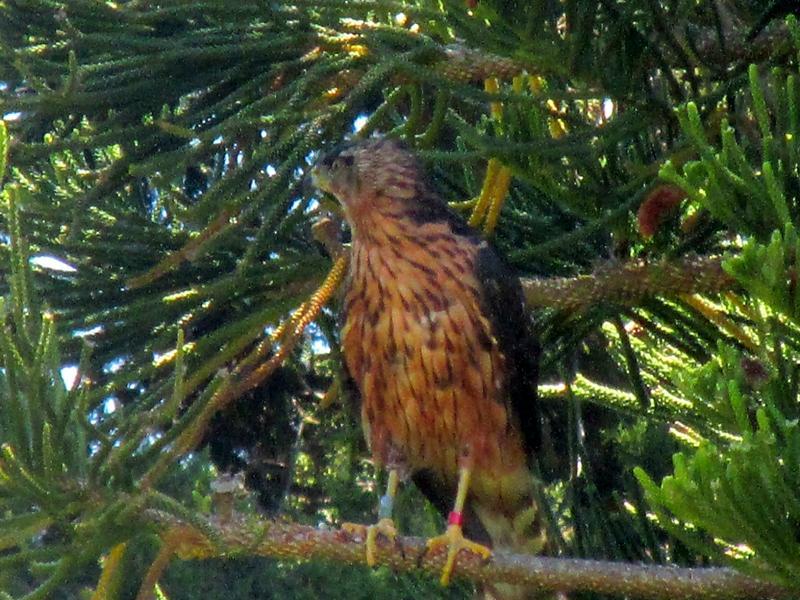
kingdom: Animalia
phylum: Chordata
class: Aves
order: Accipitriformes
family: Accipitridae
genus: Accipiter
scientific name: Accipiter melanoleucus
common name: Black sparrowhawk
